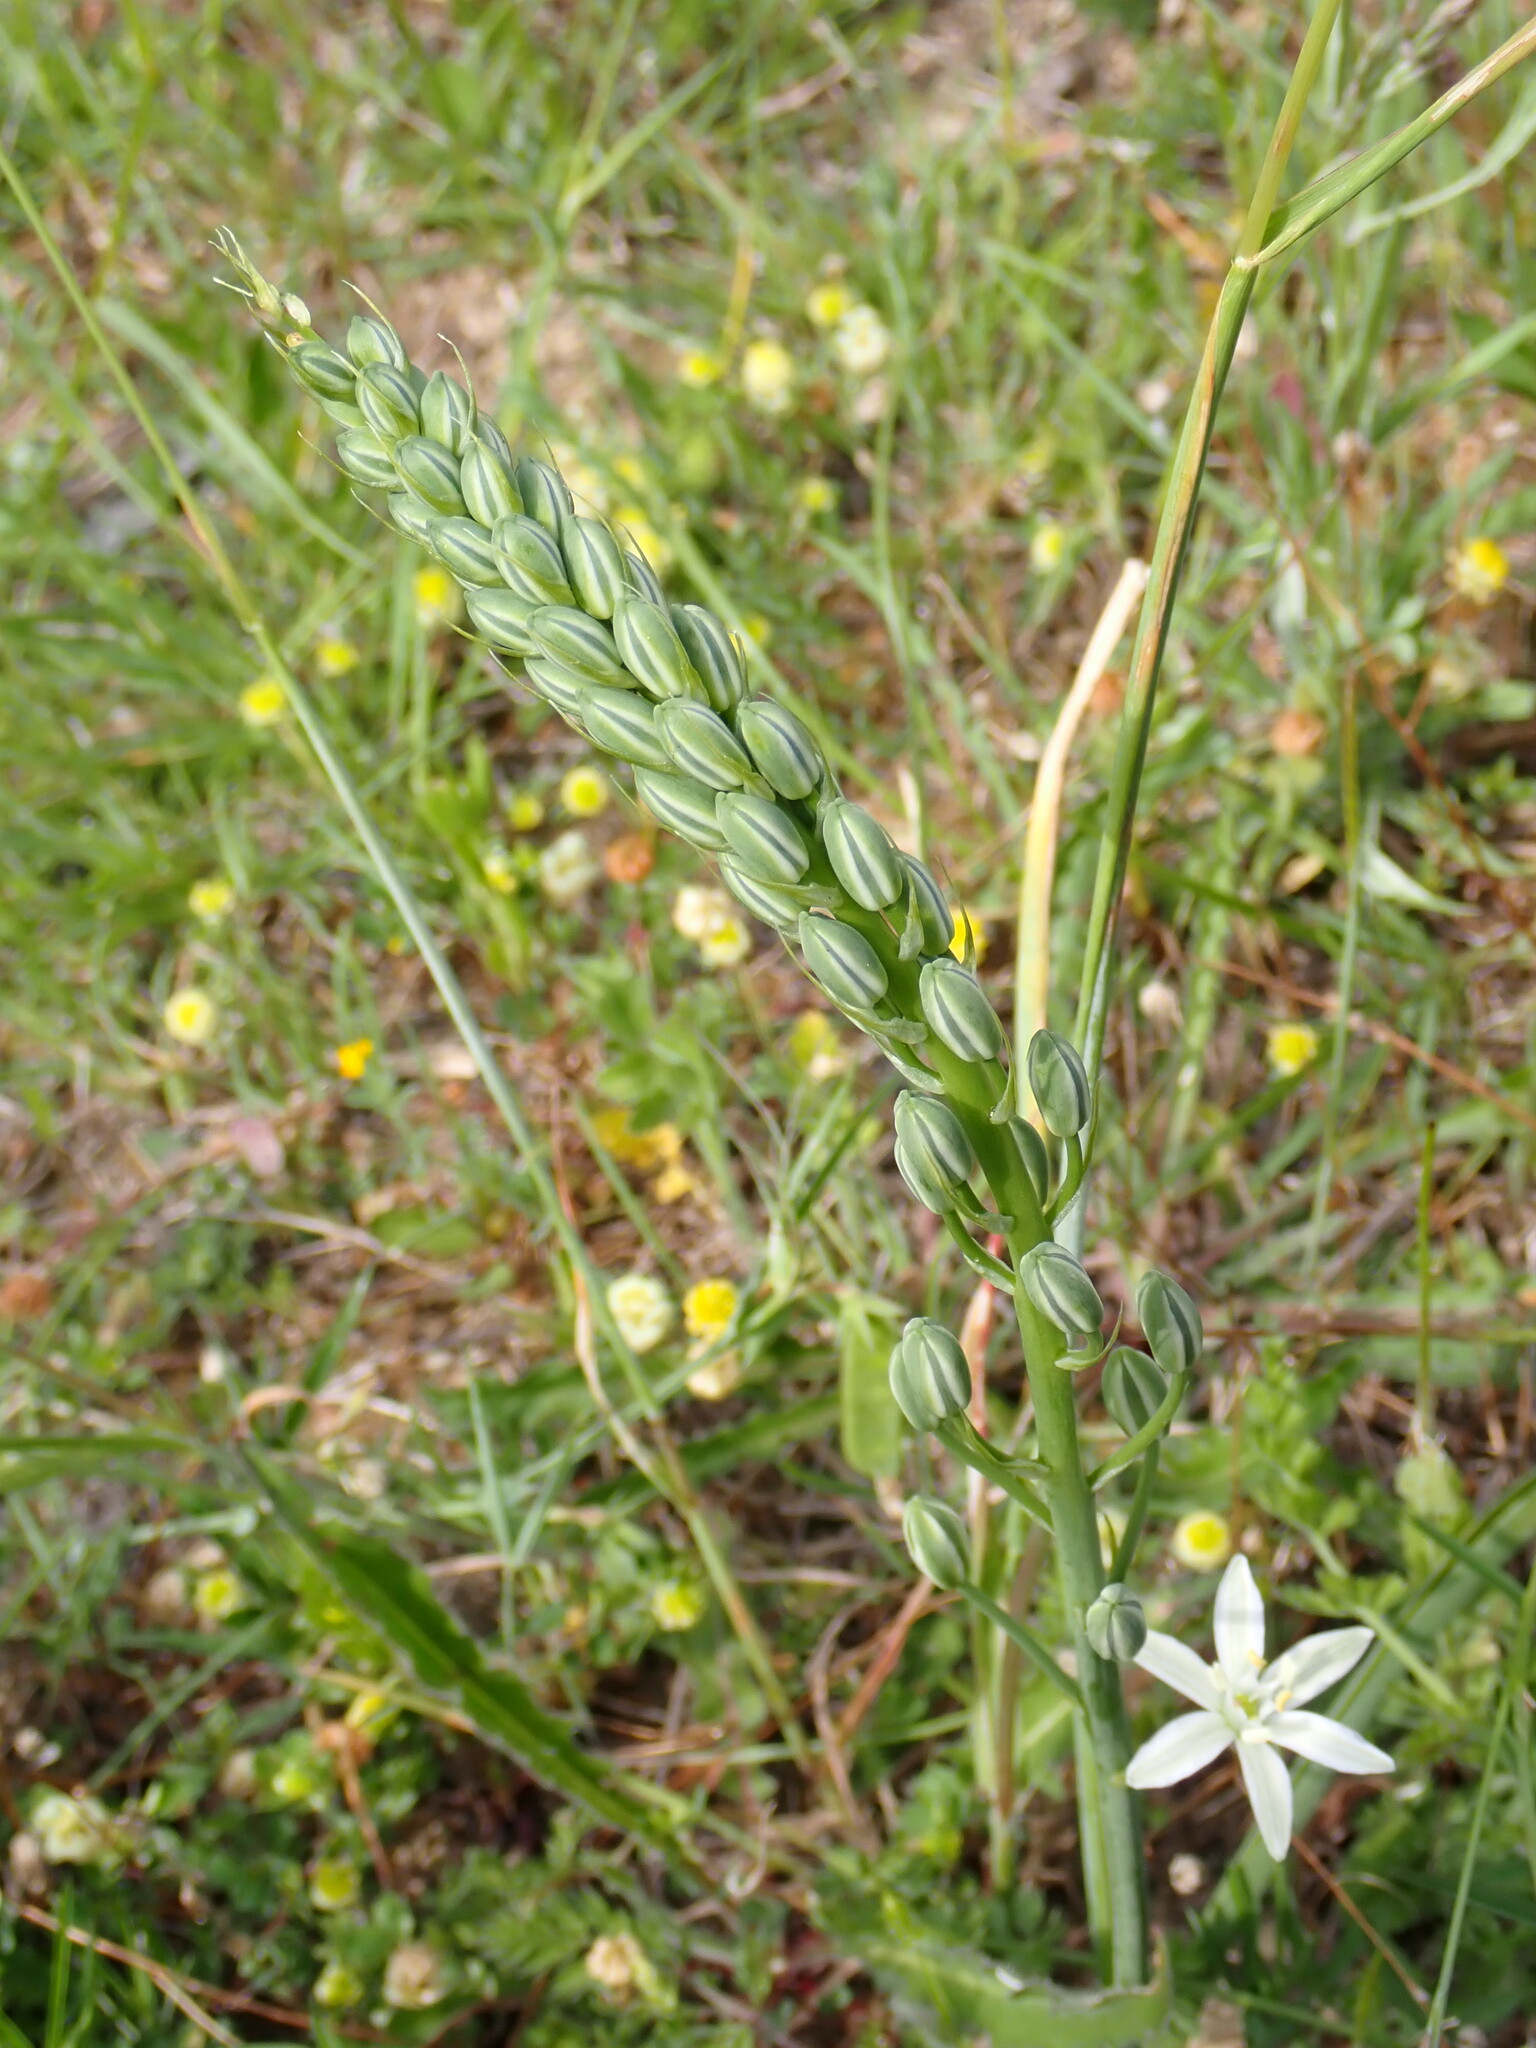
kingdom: Plantae
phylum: Tracheophyta
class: Liliopsida
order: Asparagales
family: Asparagaceae
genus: Ornithogalum
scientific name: Ornithogalum narbonense
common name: Bath-asparagus
